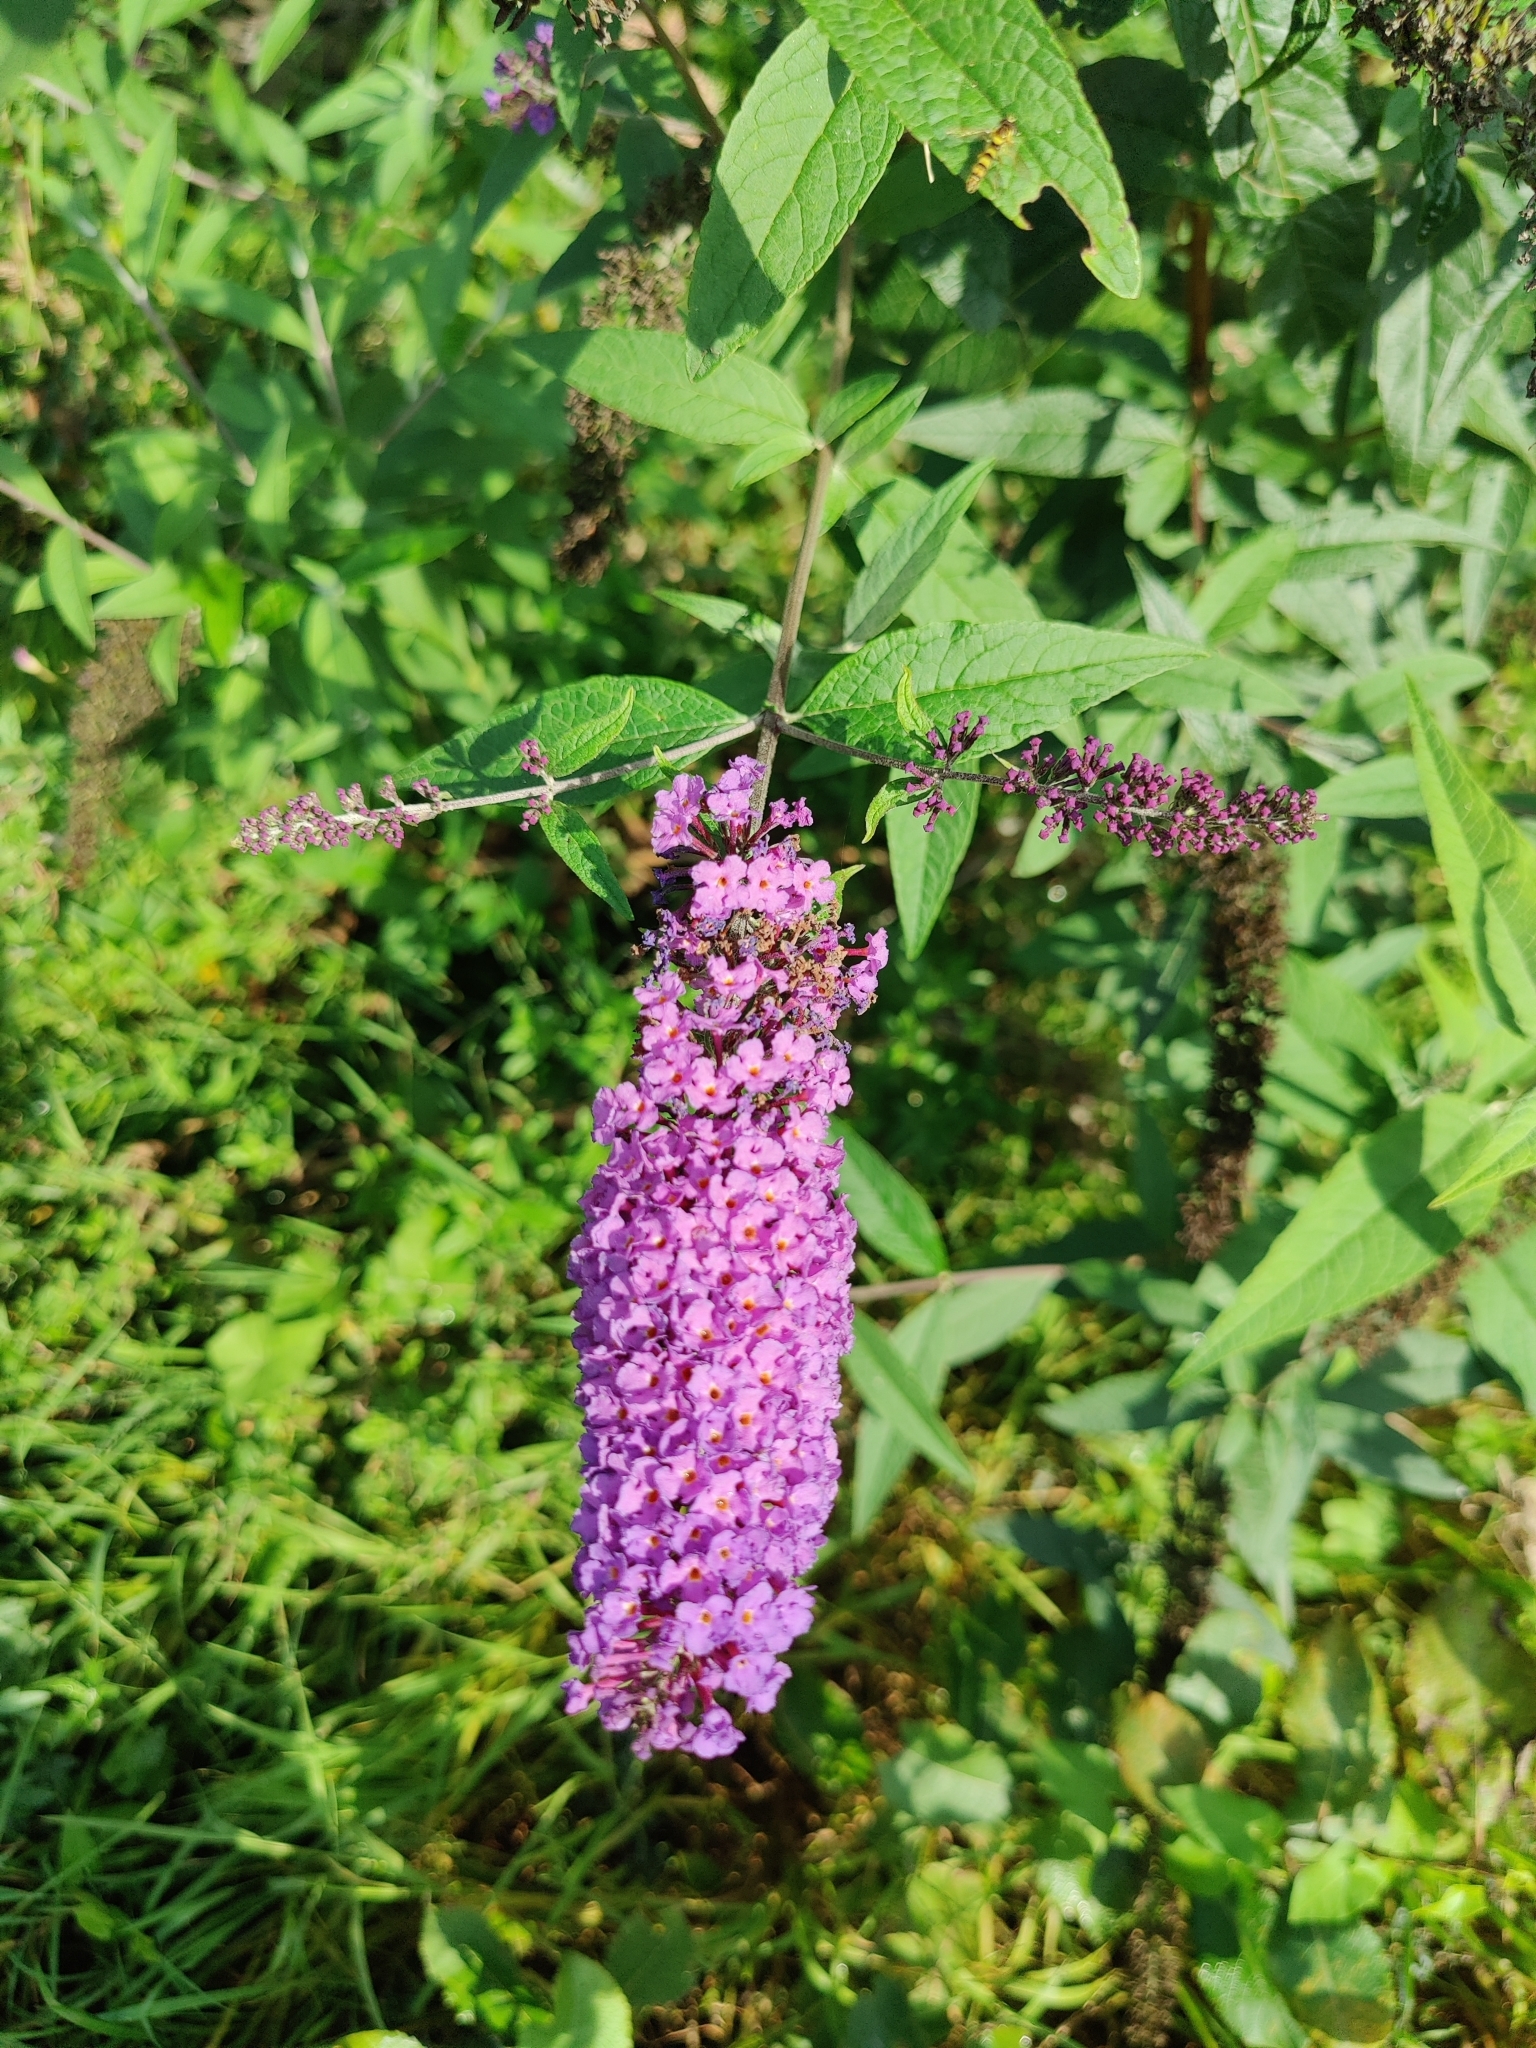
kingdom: Plantae
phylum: Tracheophyta
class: Magnoliopsida
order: Lamiales
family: Scrophulariaceae
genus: Buddleja
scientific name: Buddleja davidii
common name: Butterfly-bush
